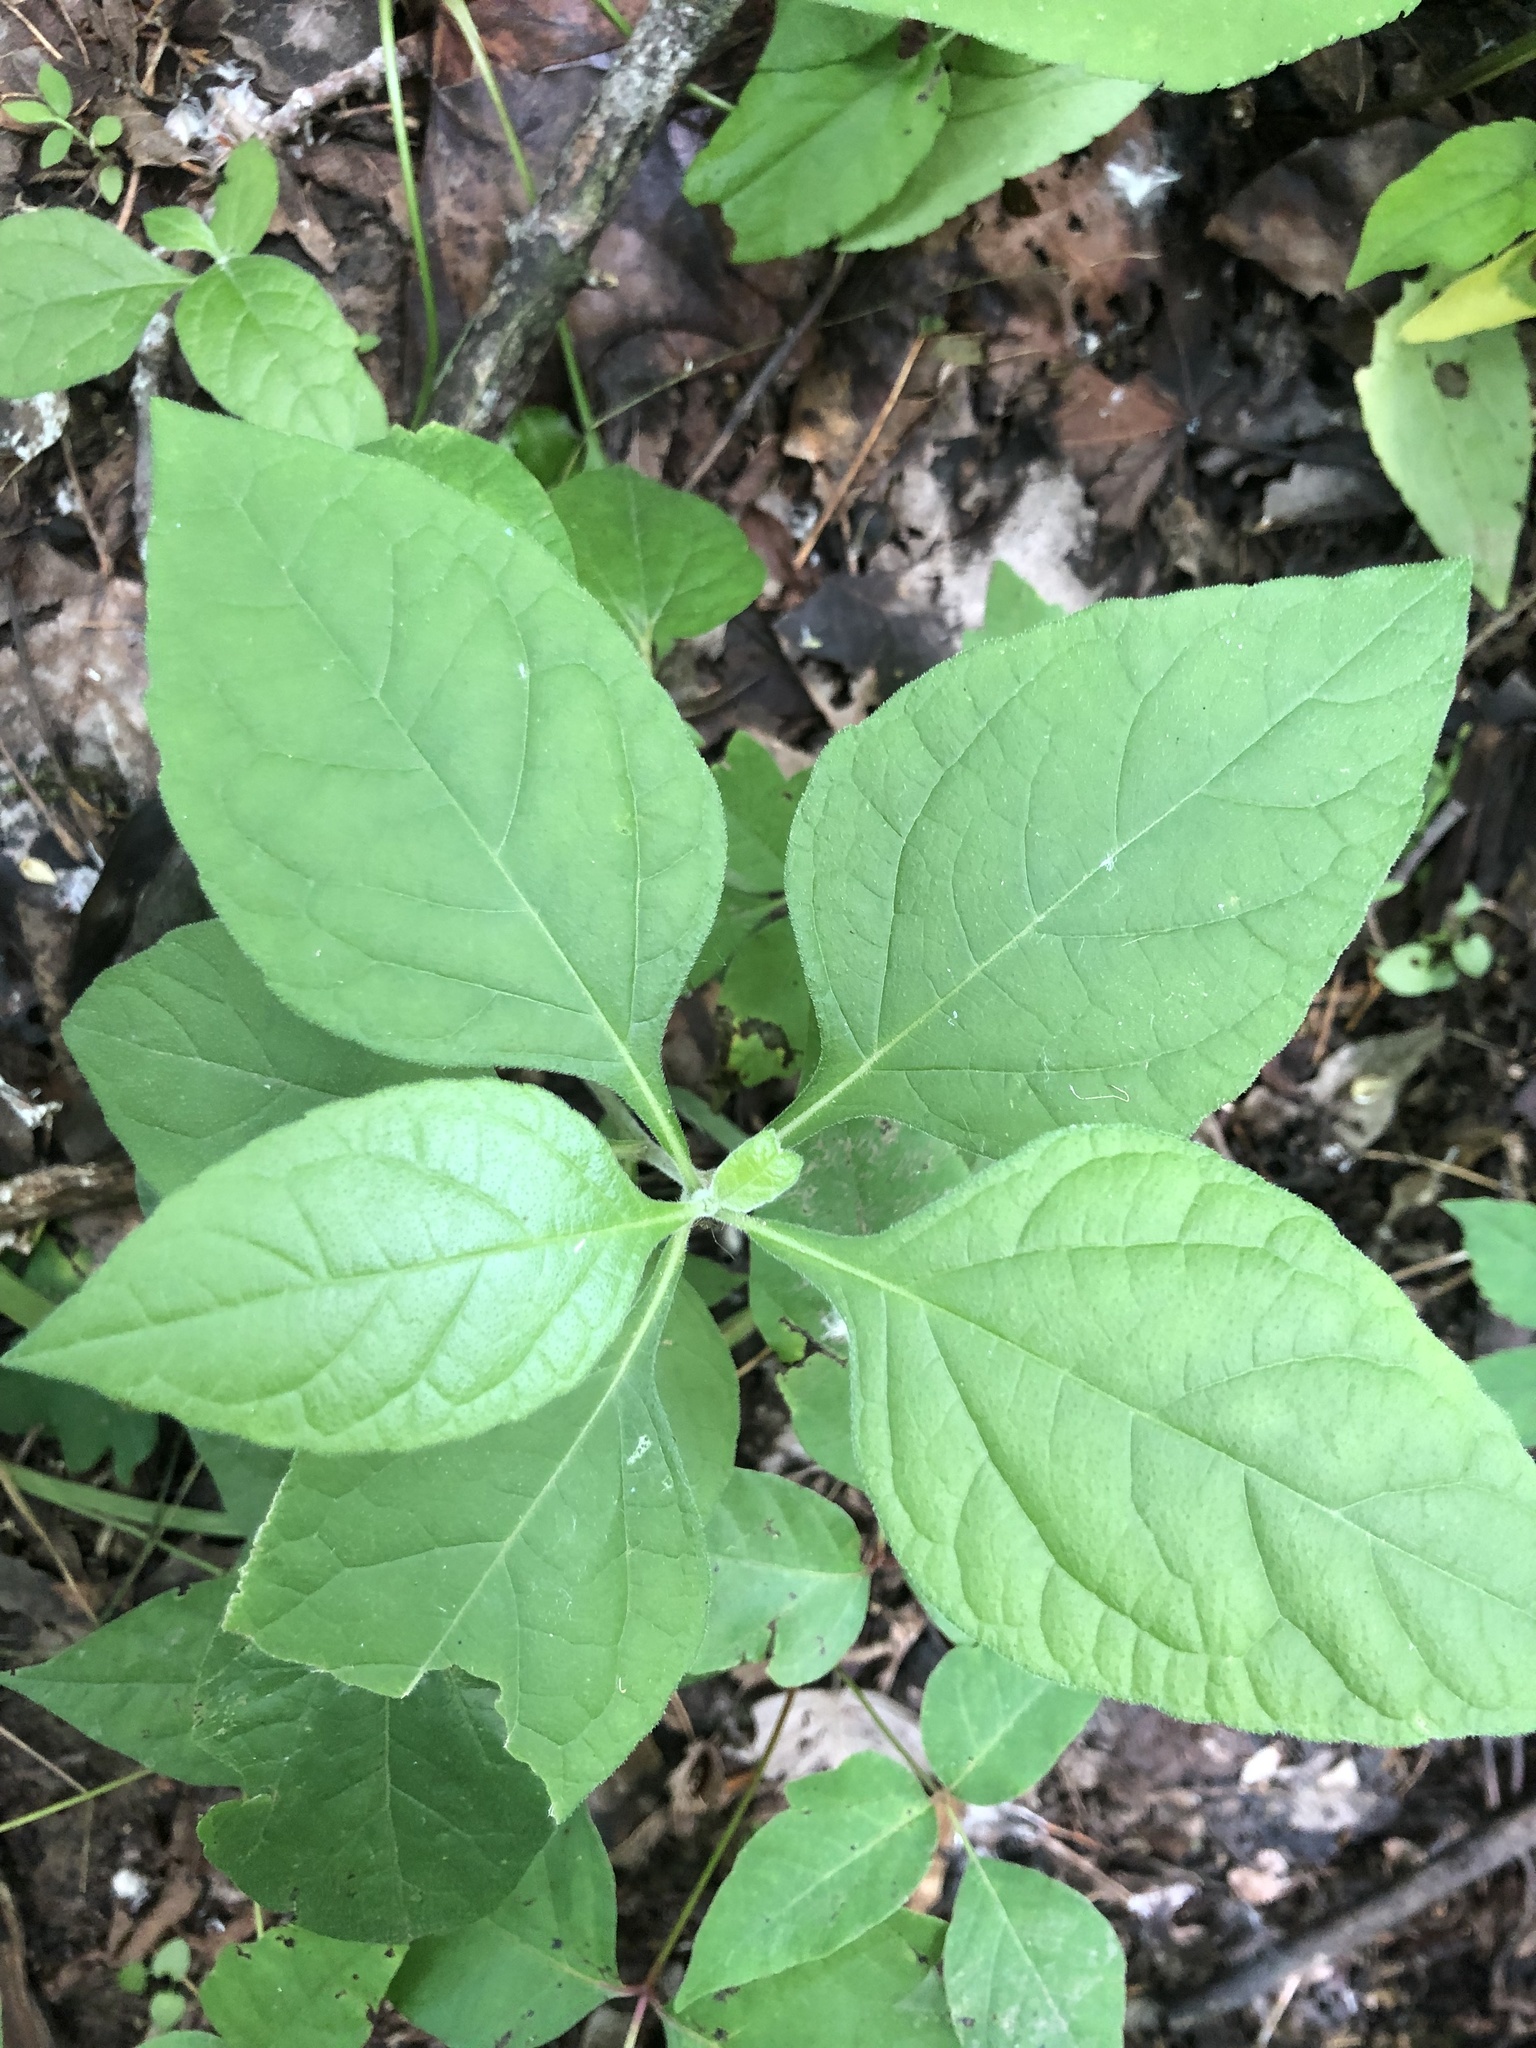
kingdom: Plantae
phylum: Tracheophyta
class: Magnoliopsida
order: Asterales
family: Asteraceae
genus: Verbesina
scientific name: Verbesina virginica
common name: Frostweed
